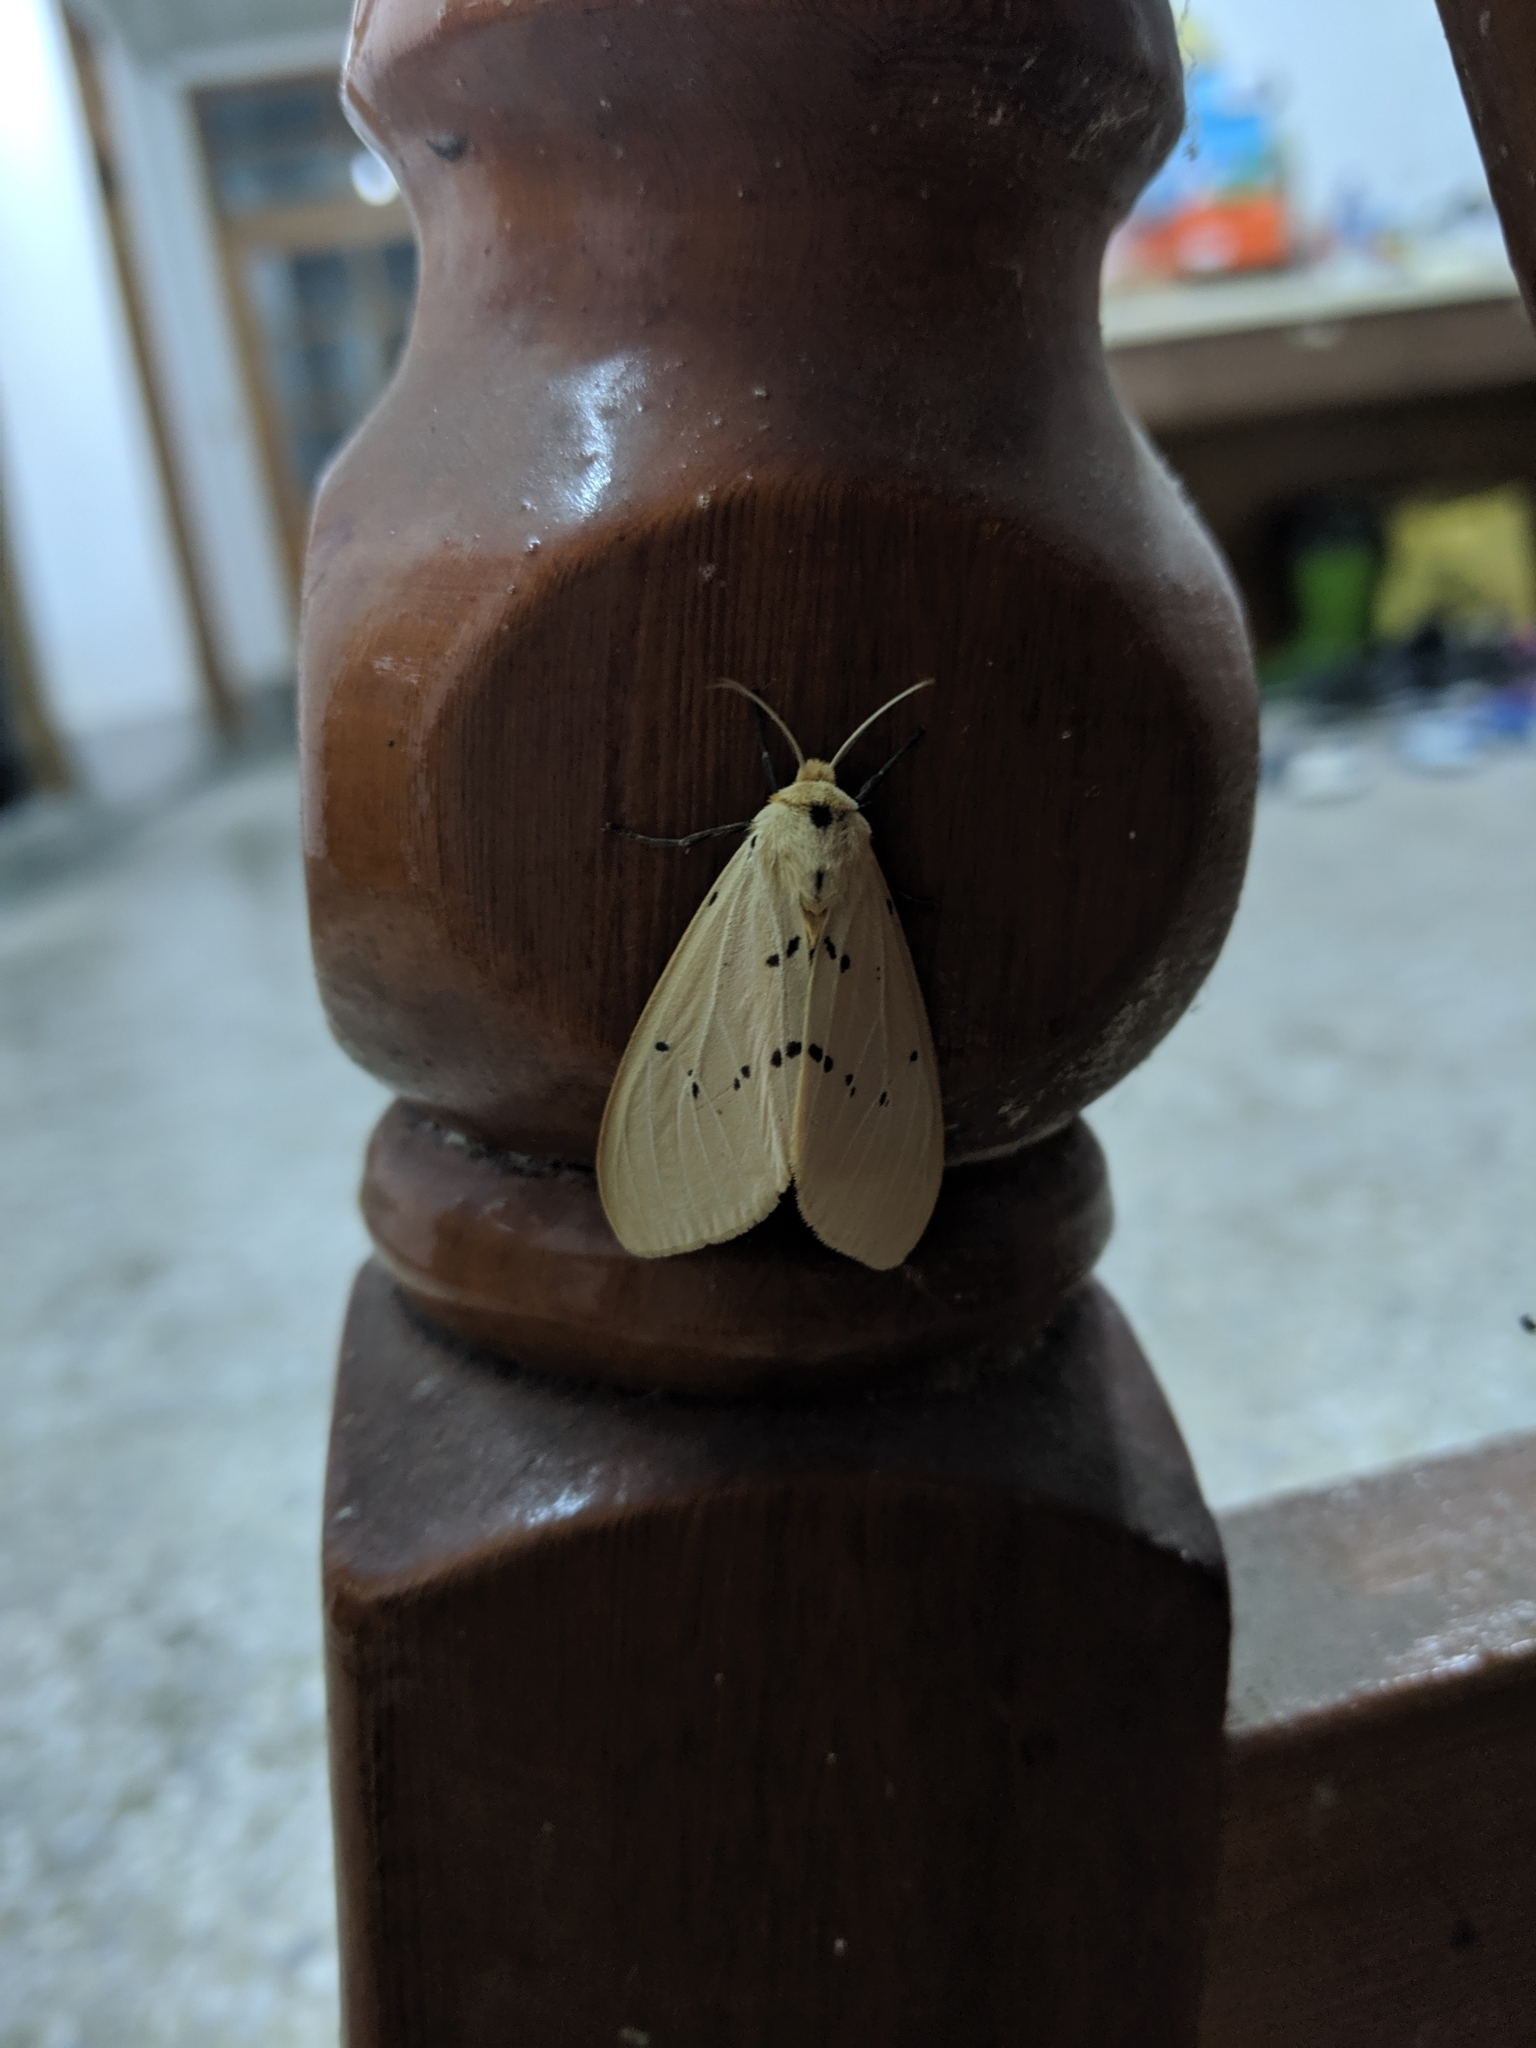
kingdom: Animalia
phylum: Arthropoda
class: Insecta
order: Lepidoptera
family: Erebidae
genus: Spilarctia
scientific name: Spilarctia postrubida
